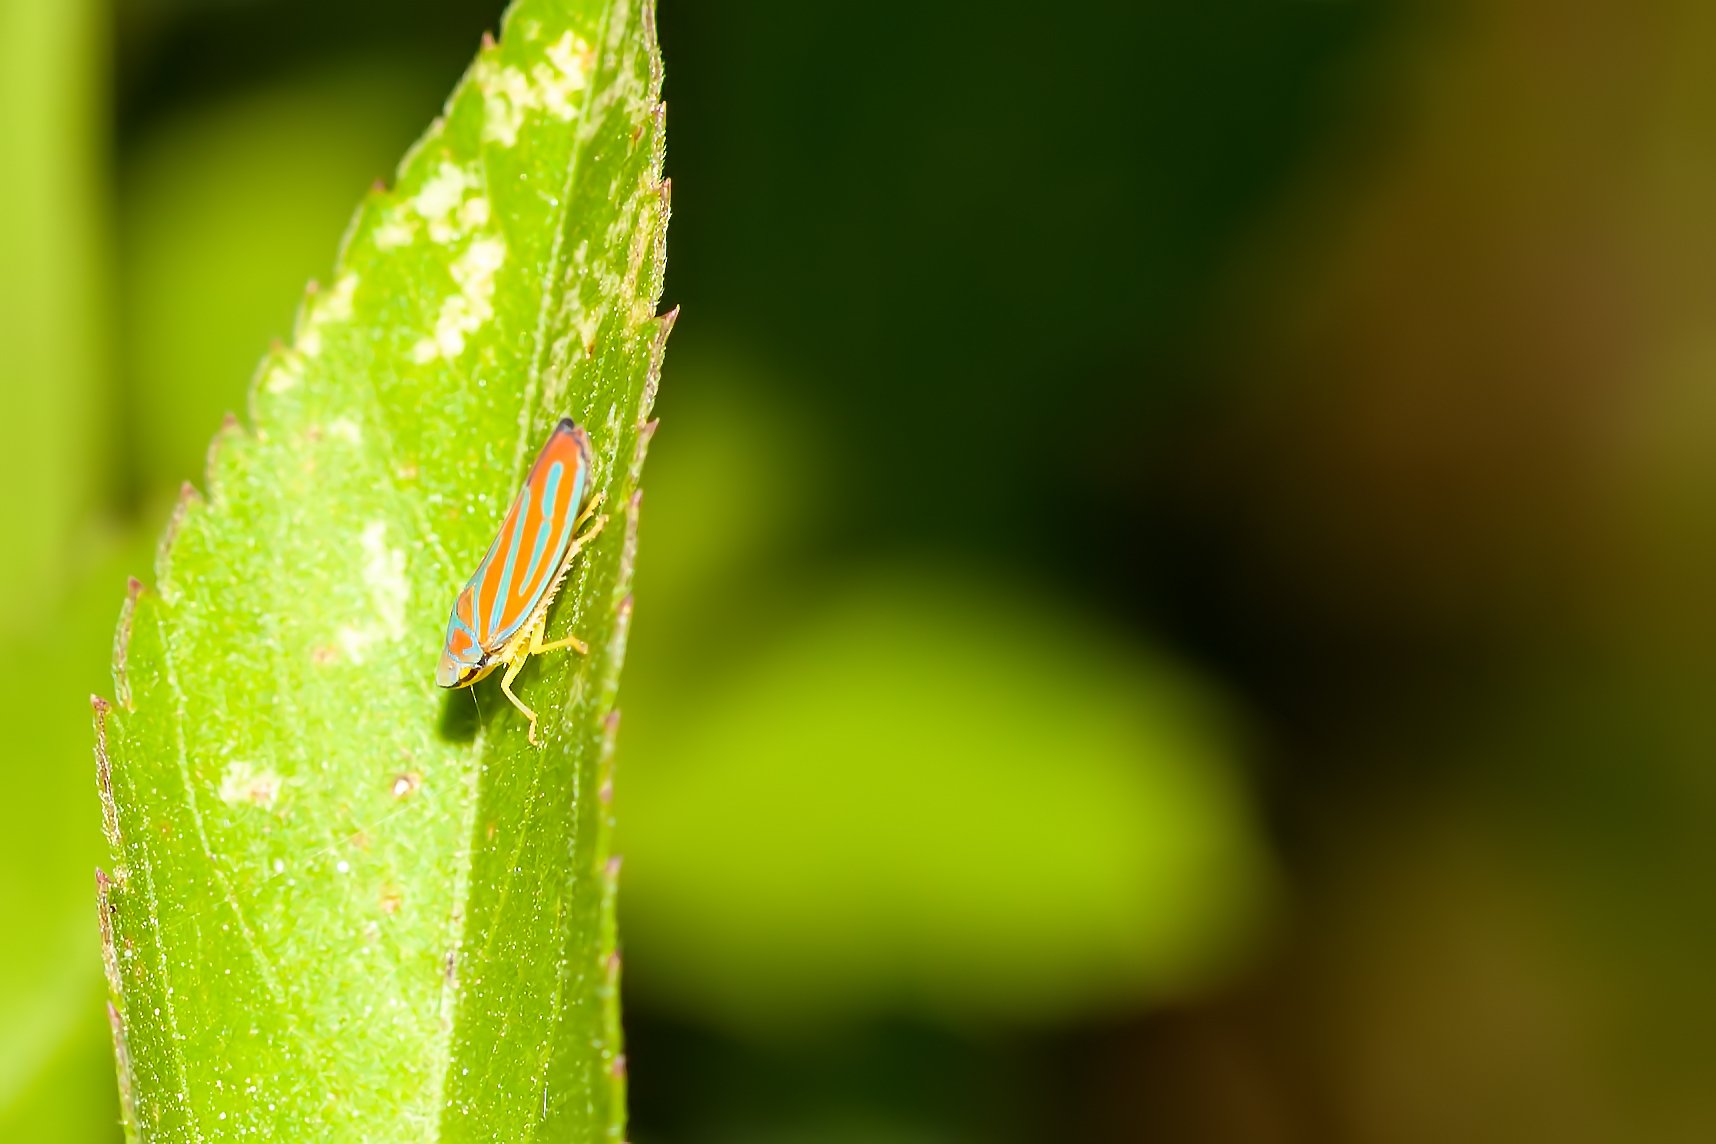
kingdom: Animalia
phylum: Arthropoda
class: Insecta
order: Hemiptera
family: Cicadellidae
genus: Graphocephala
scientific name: Graphocephala coccinea
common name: Candy-striped leafhopper
